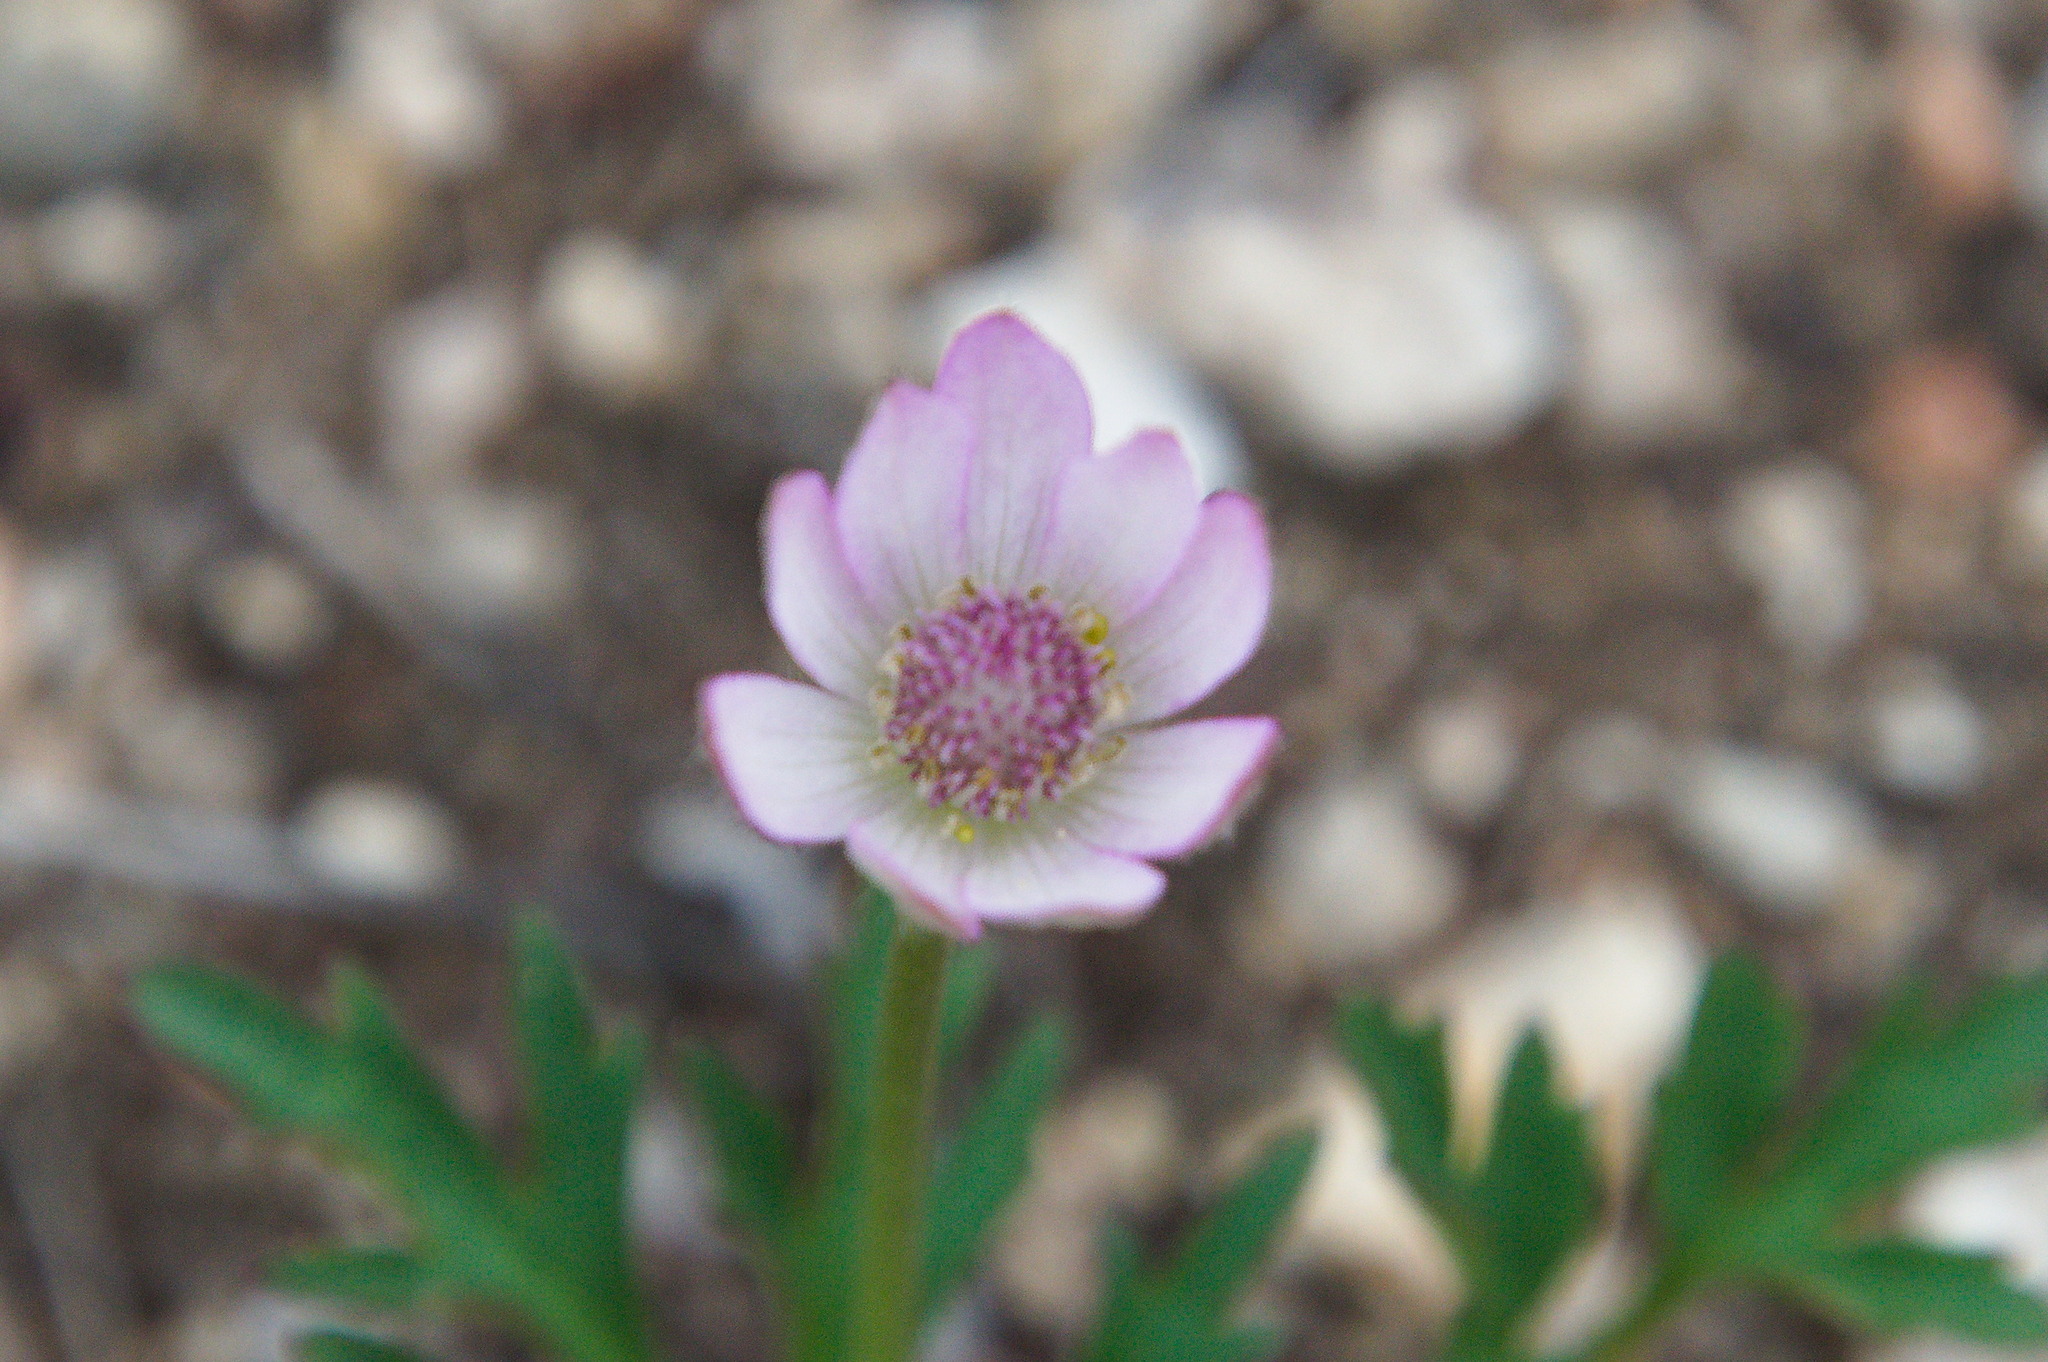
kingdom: Plantae
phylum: Tracheophyta
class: Magnoliopsida
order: Ranunculales
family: Ranunculaceae
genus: Anemone
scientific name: Anemone tuberosa
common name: Desert anemone
